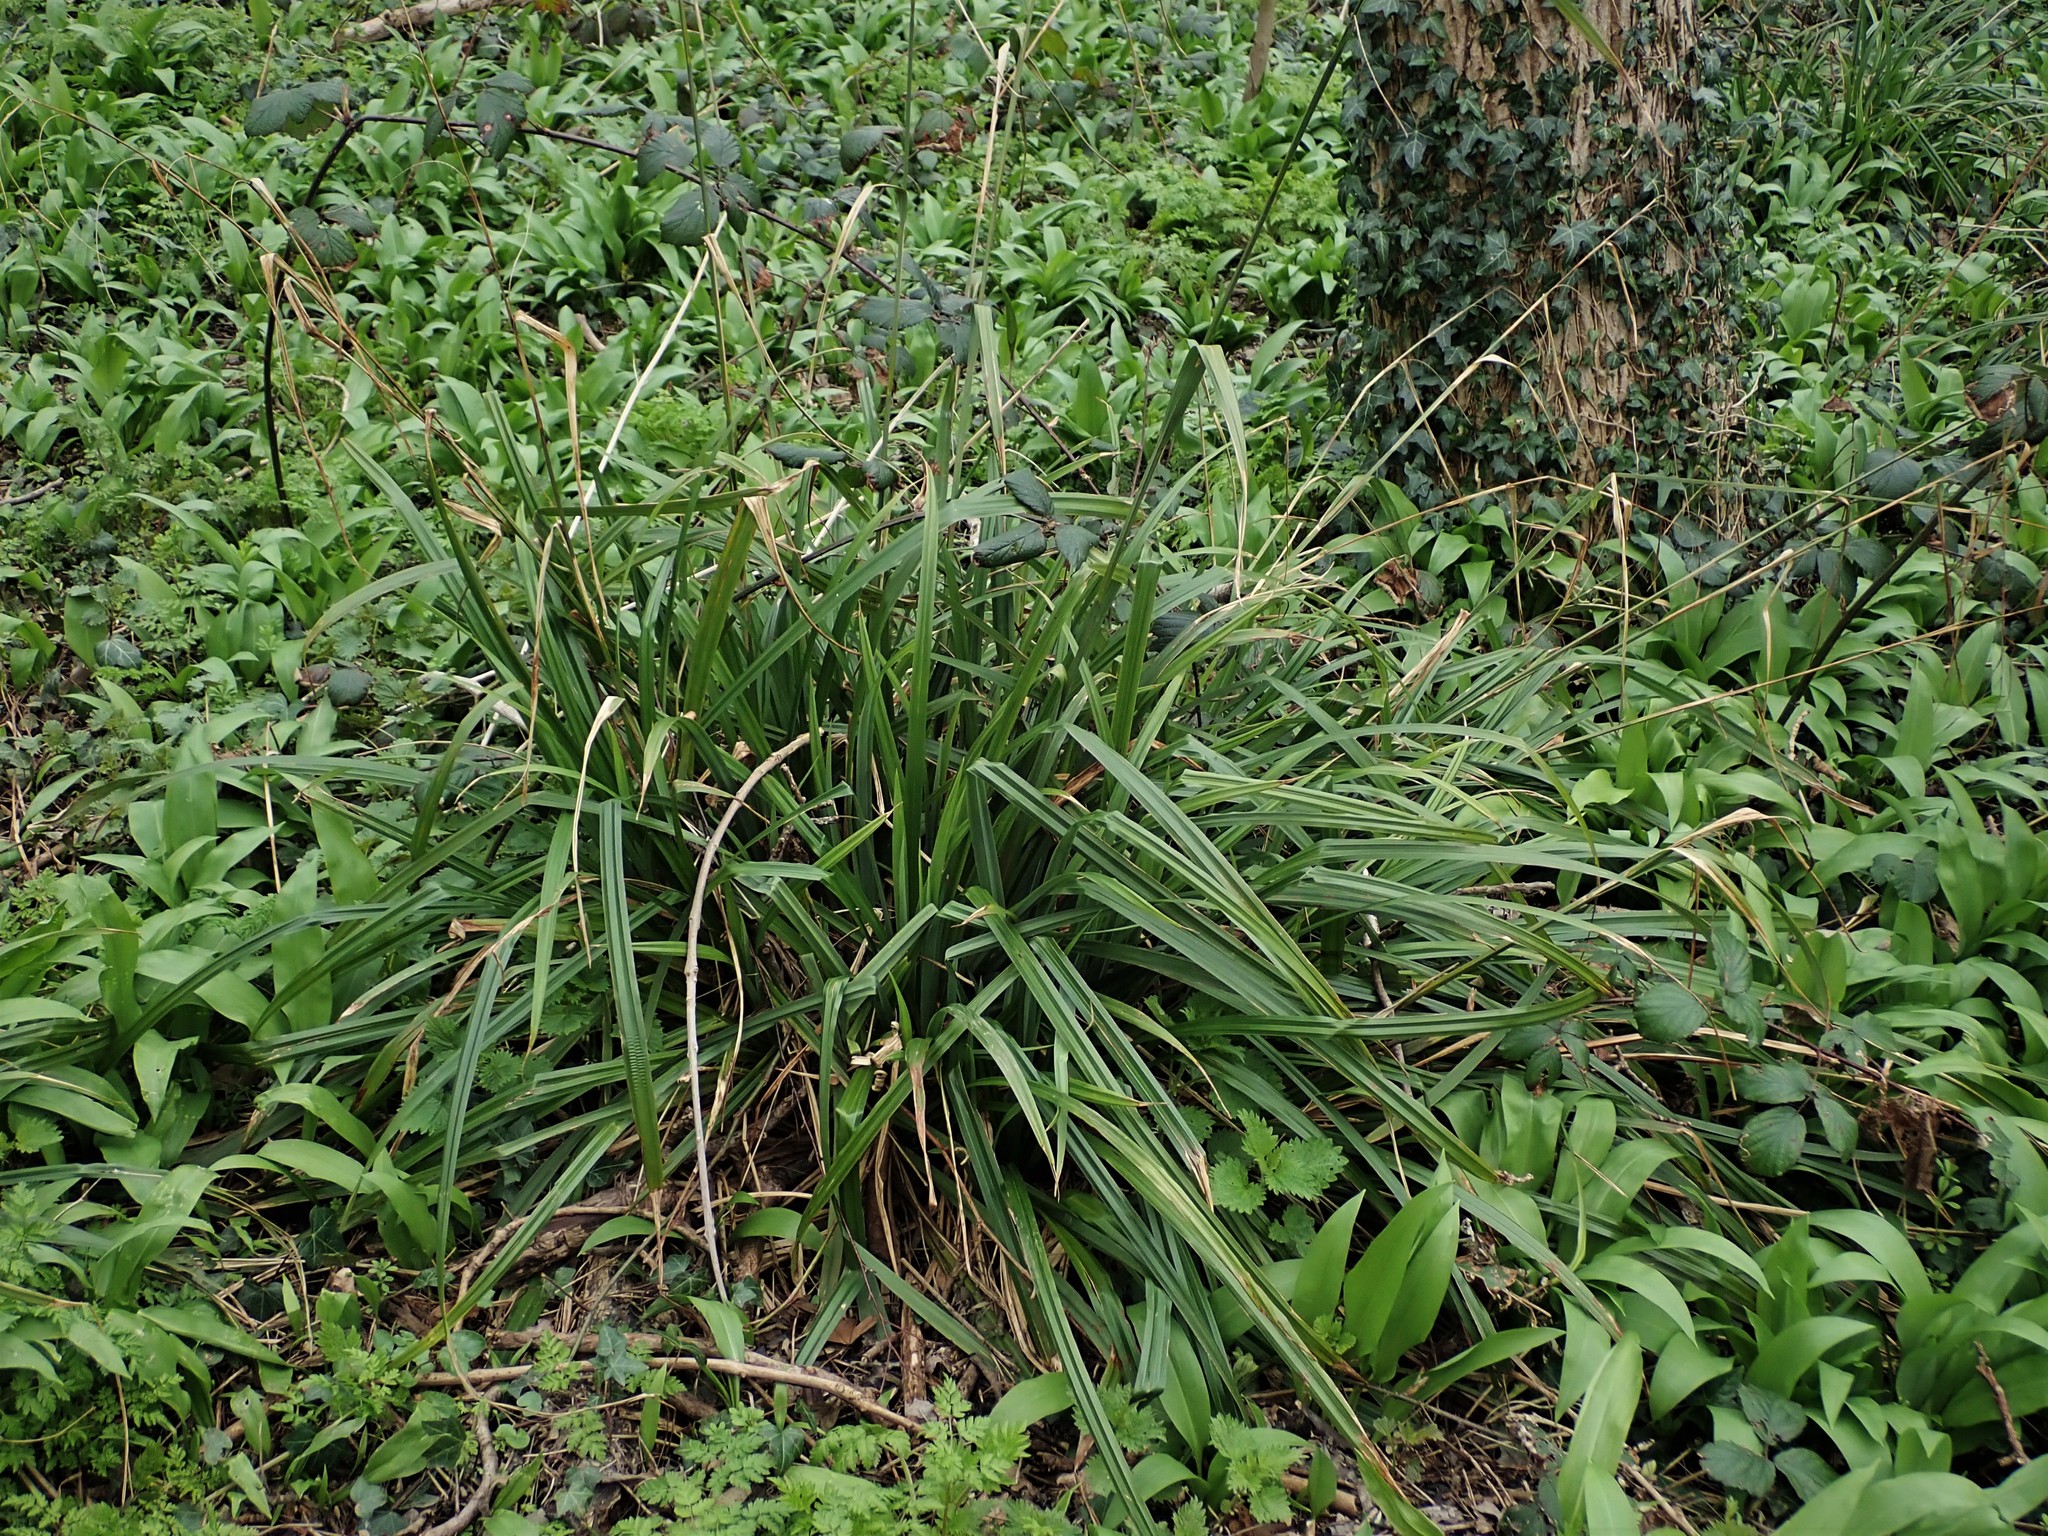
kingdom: Plantae
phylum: Tracheophyta
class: Liliopsida
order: Poales
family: Cyperaceae
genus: Carex
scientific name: Carex pendula
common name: Pendulous sedge
